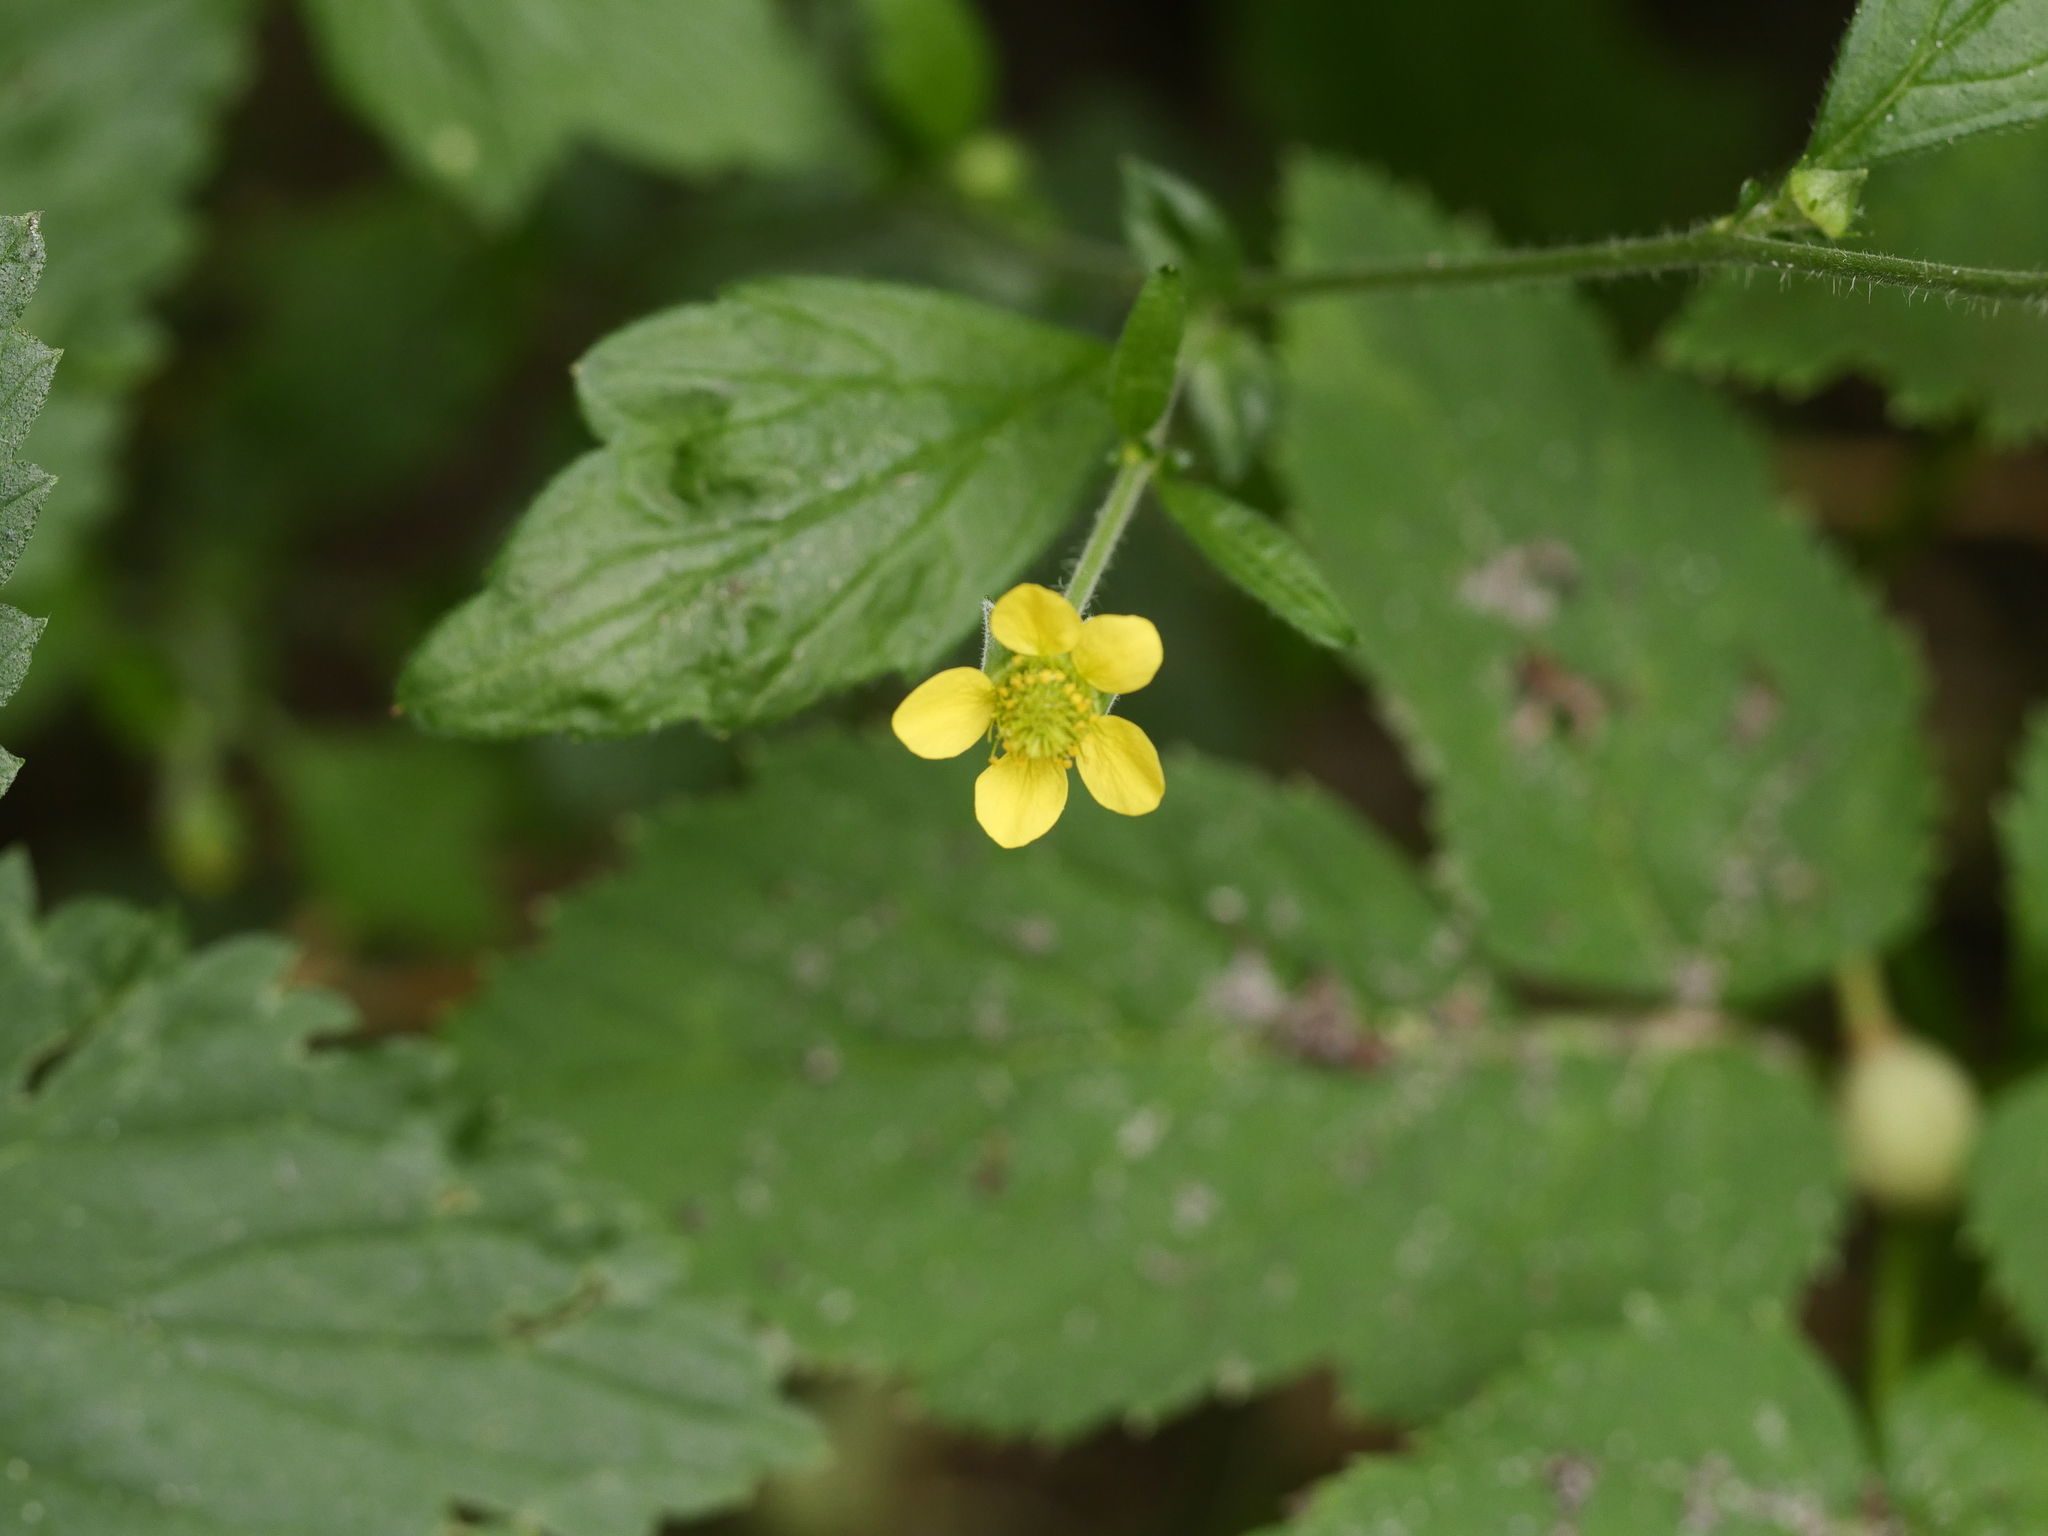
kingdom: Plantae
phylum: Tracheophyta
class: Magnoliopsida
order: Rosales
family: Rosaceae
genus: Geum
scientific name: Geum urbanum
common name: Wood avens
